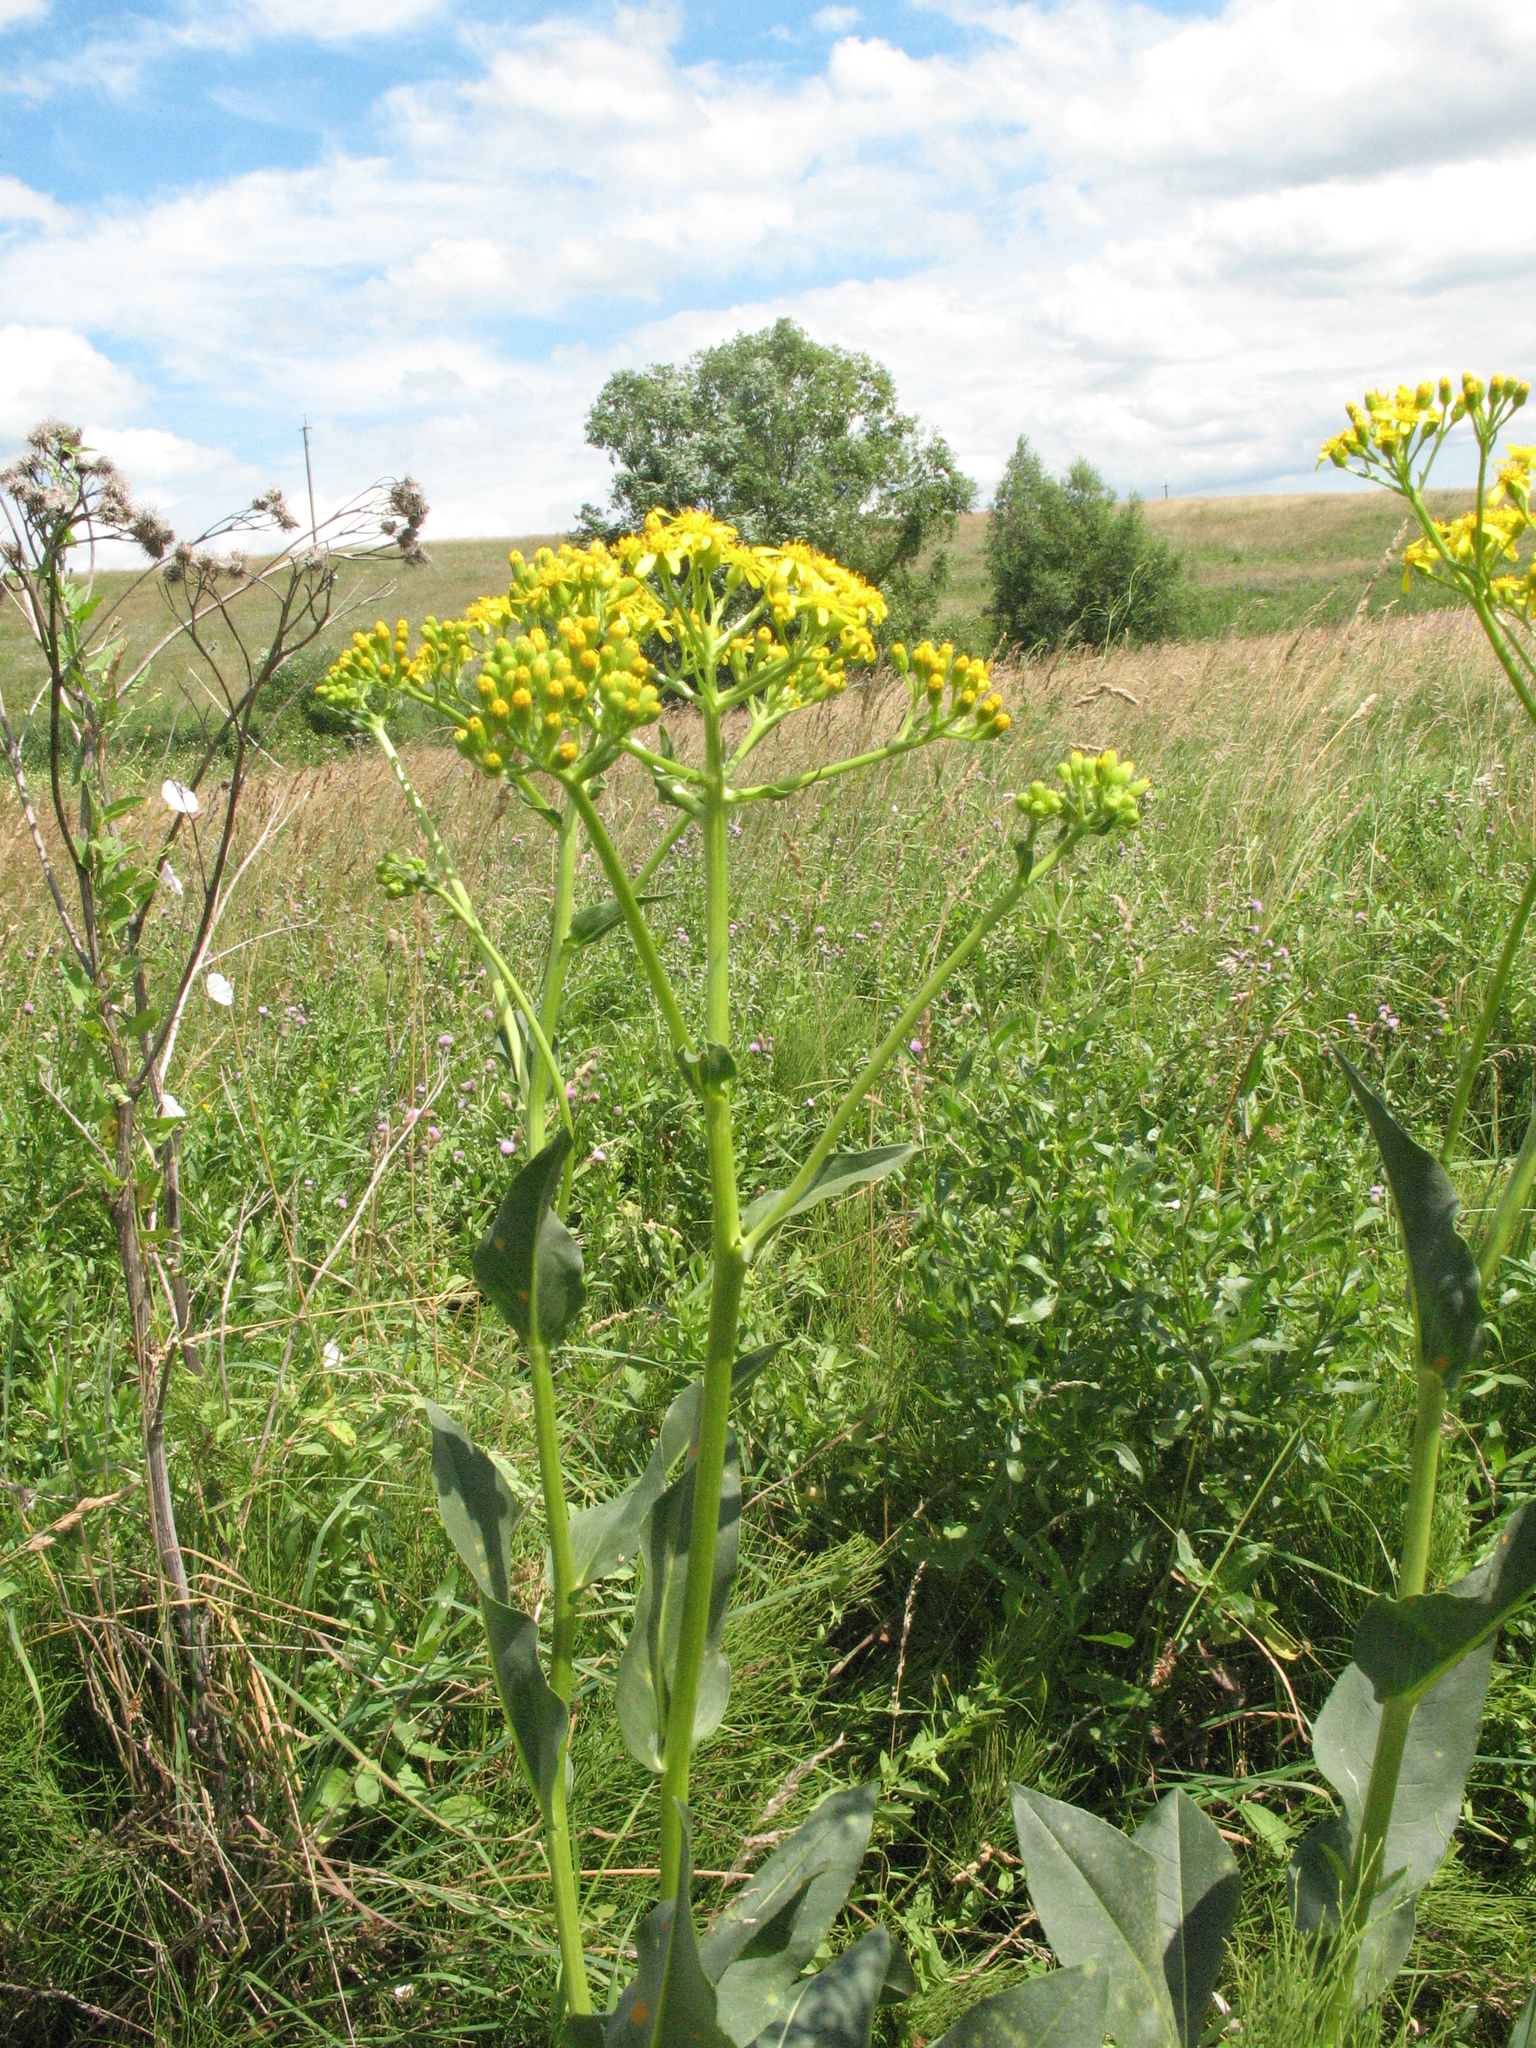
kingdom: Plantae
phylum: Tracheophyta
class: Magnoliopsida
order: Asterales
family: Asteraceae
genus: Senecio
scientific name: Senecio doria
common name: Golden ragwort
